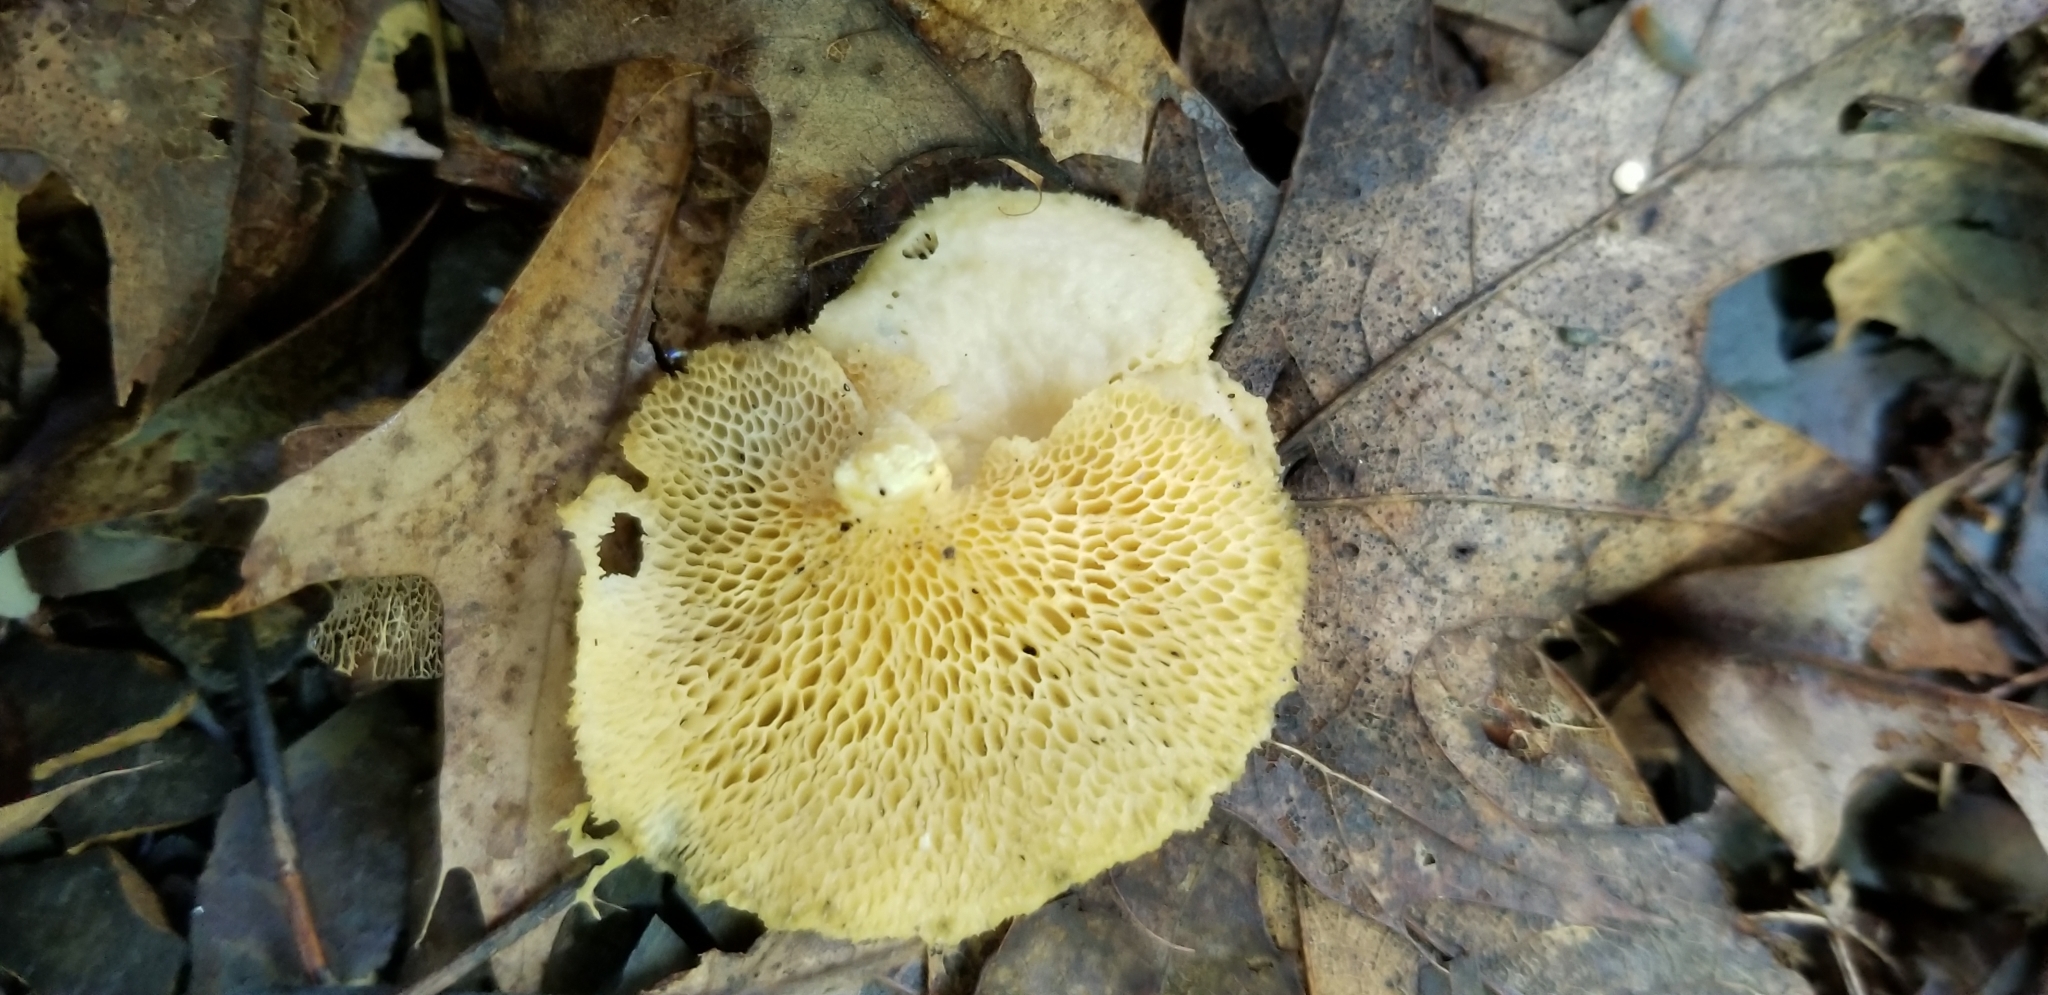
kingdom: Fungi
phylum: Basidiomycota
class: Agaricomycetes
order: Polyporales
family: Polyporaceae
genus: Neofavolus
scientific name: Neofavolus alveolaris
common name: Hexagonal-pored polypore
